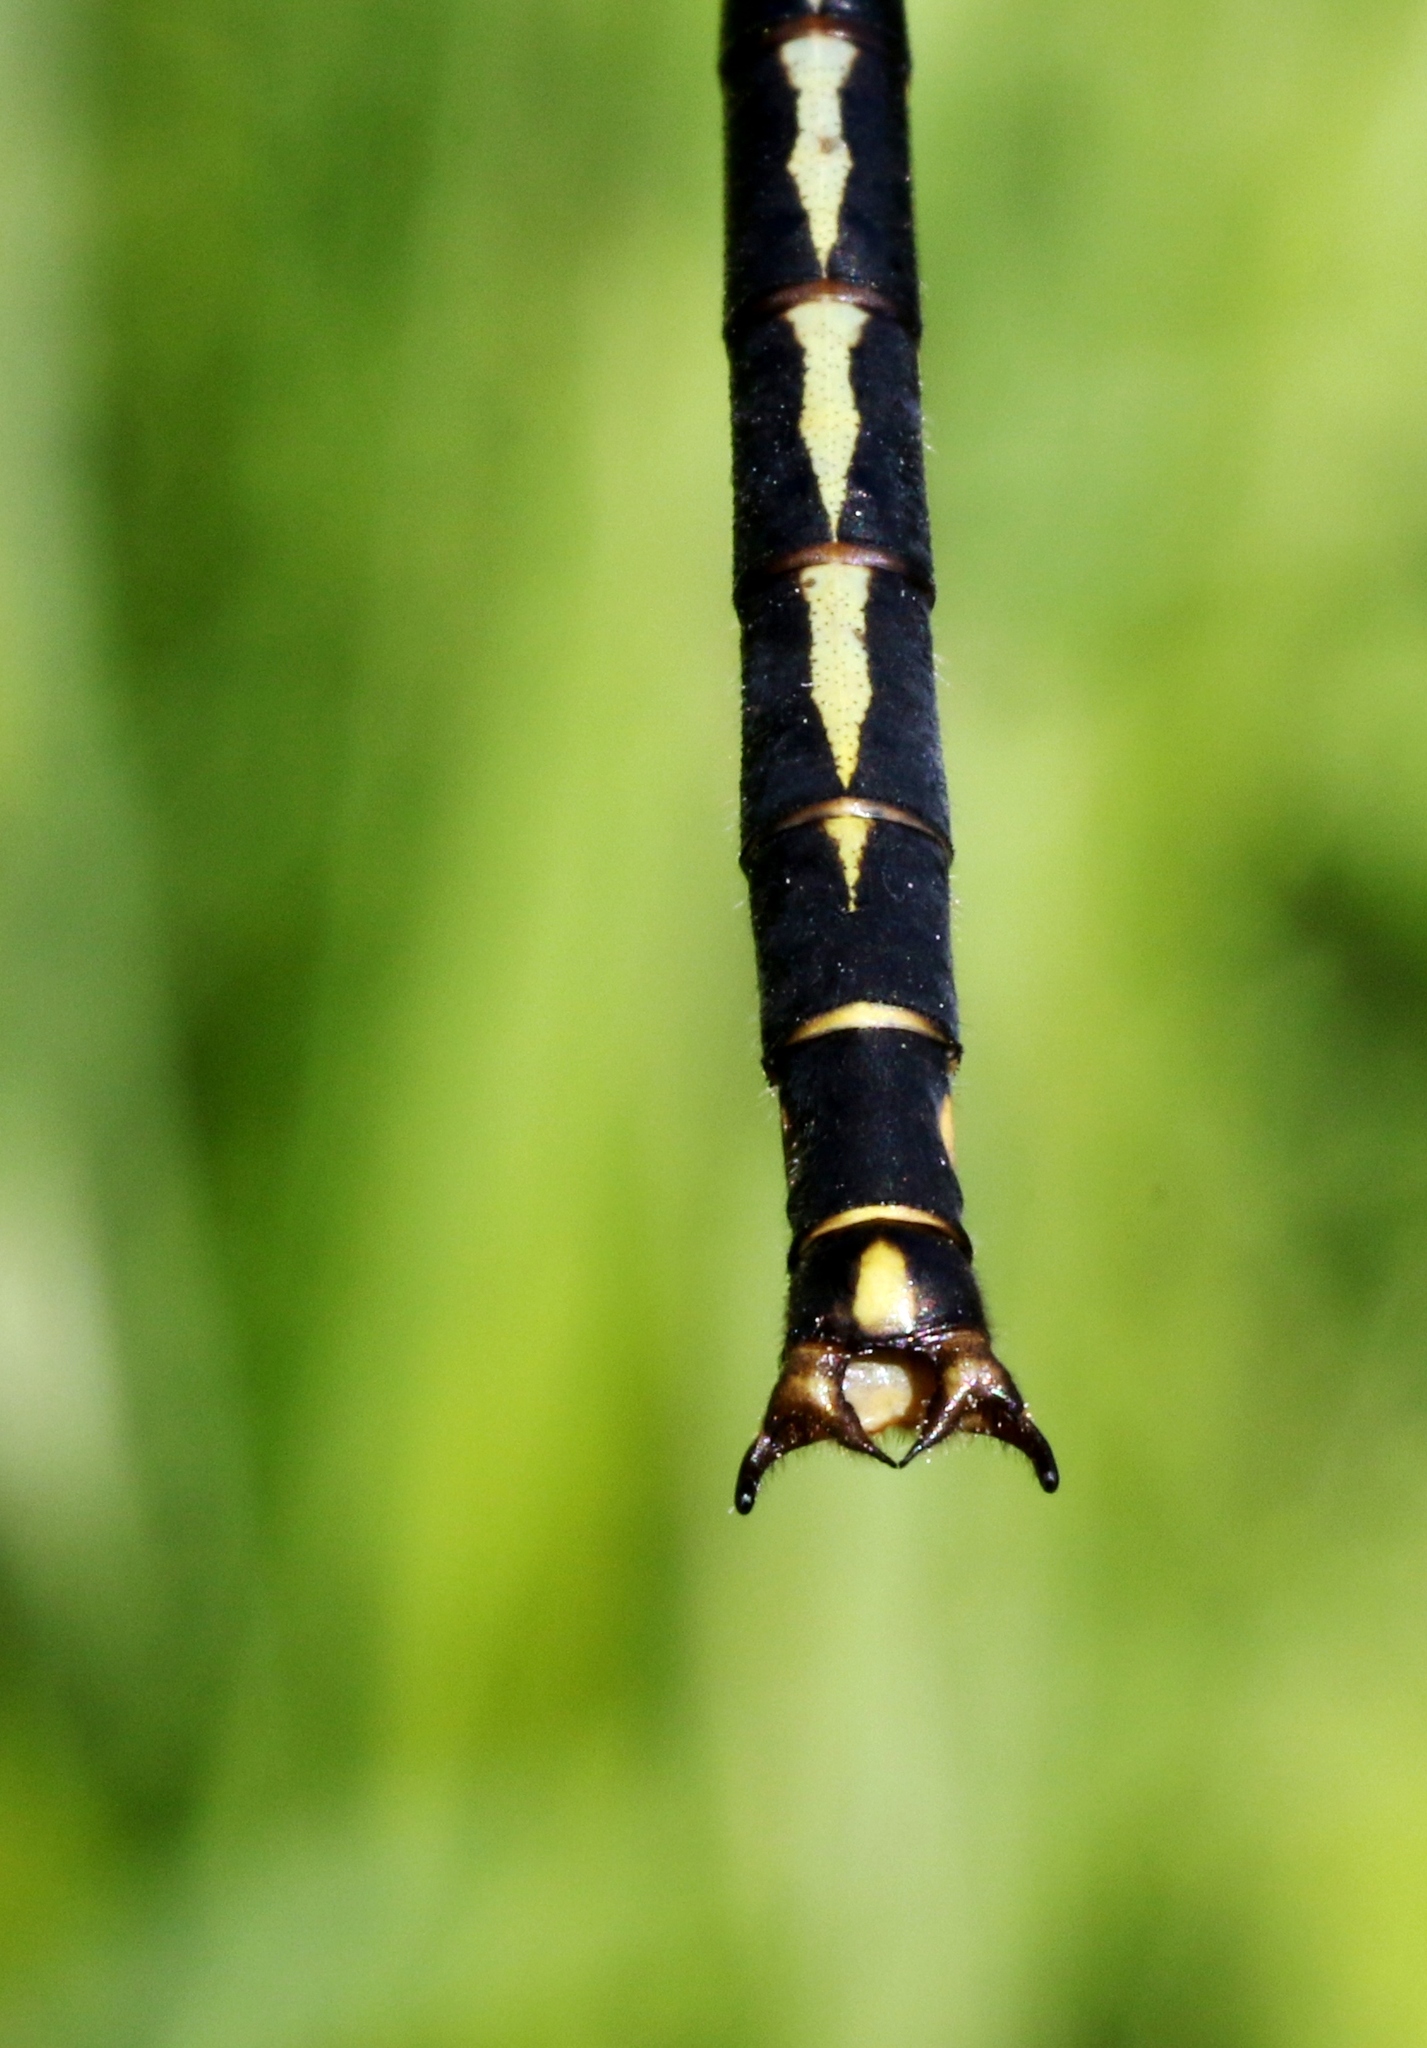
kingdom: Animalia
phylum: Arthropoda
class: Insecta
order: Odonata
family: Gomphidae
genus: Arigomphus
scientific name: Arigomphus cornutus
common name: Horned clubtail
